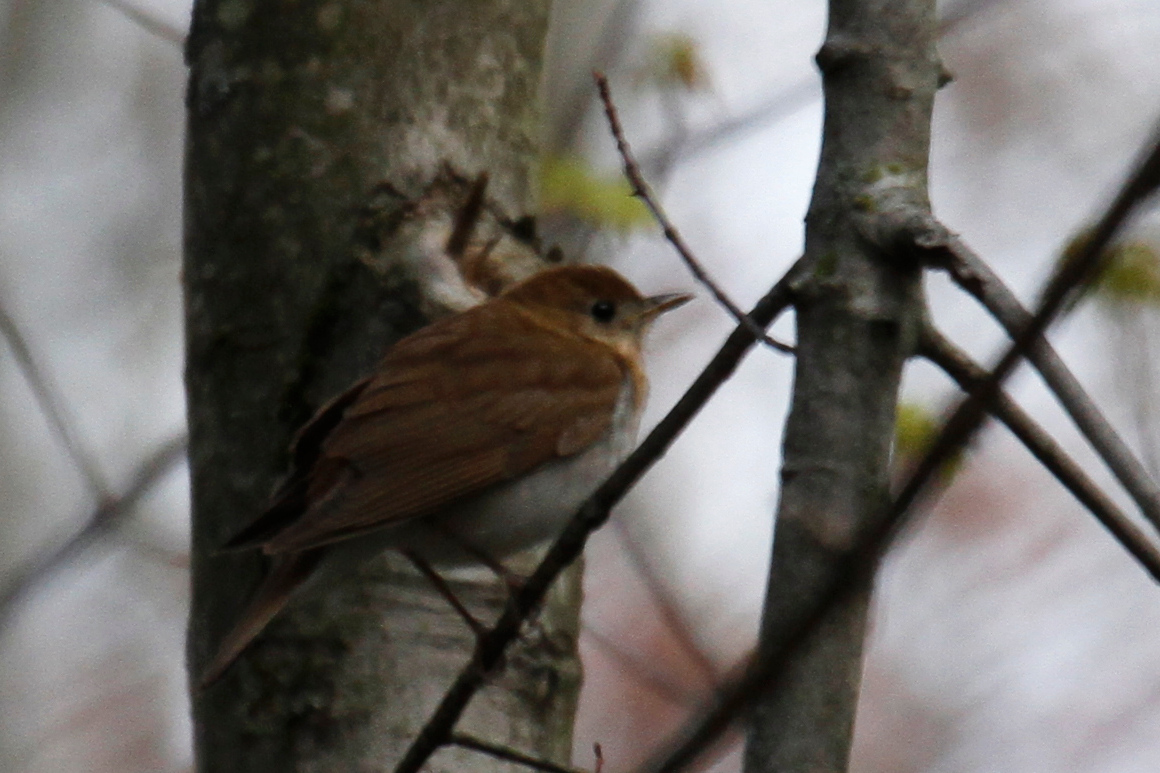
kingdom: Animalia
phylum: Chordata
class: Aves
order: Passeriformes
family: Turdidae
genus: Catharus
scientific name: Catharus fuscescens
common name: Veery
